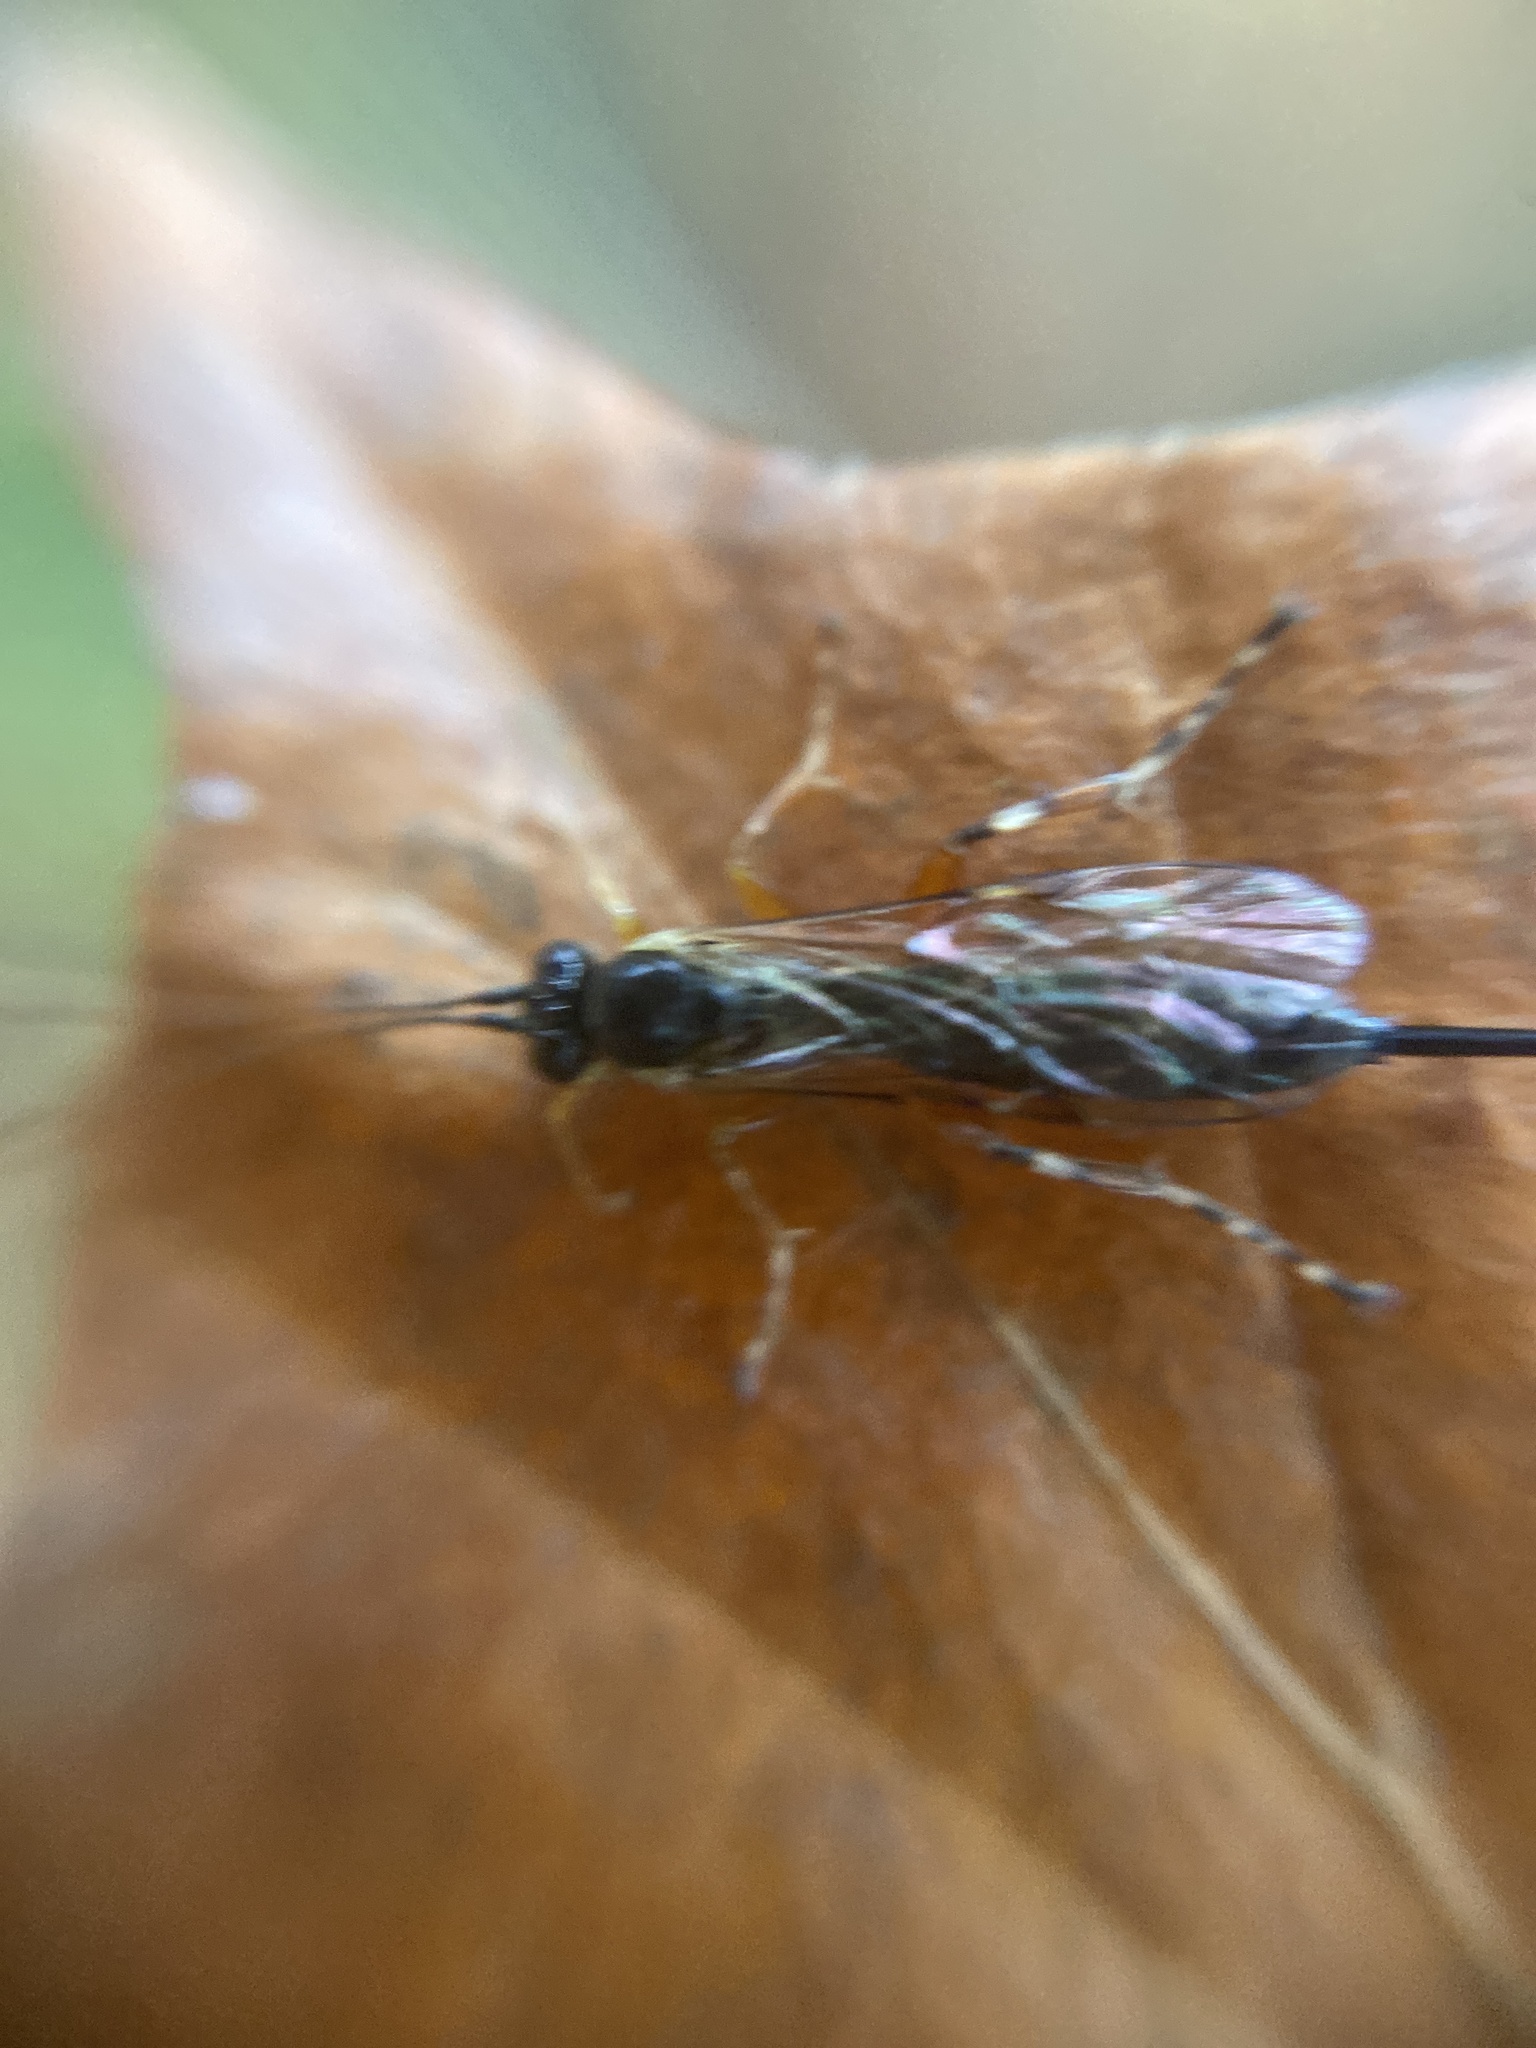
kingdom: Animalia
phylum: Arthropoda
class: Insecta
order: Hymenoptera
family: Ichneumonidae
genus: Itoplectis
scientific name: Itoplectis maculator
